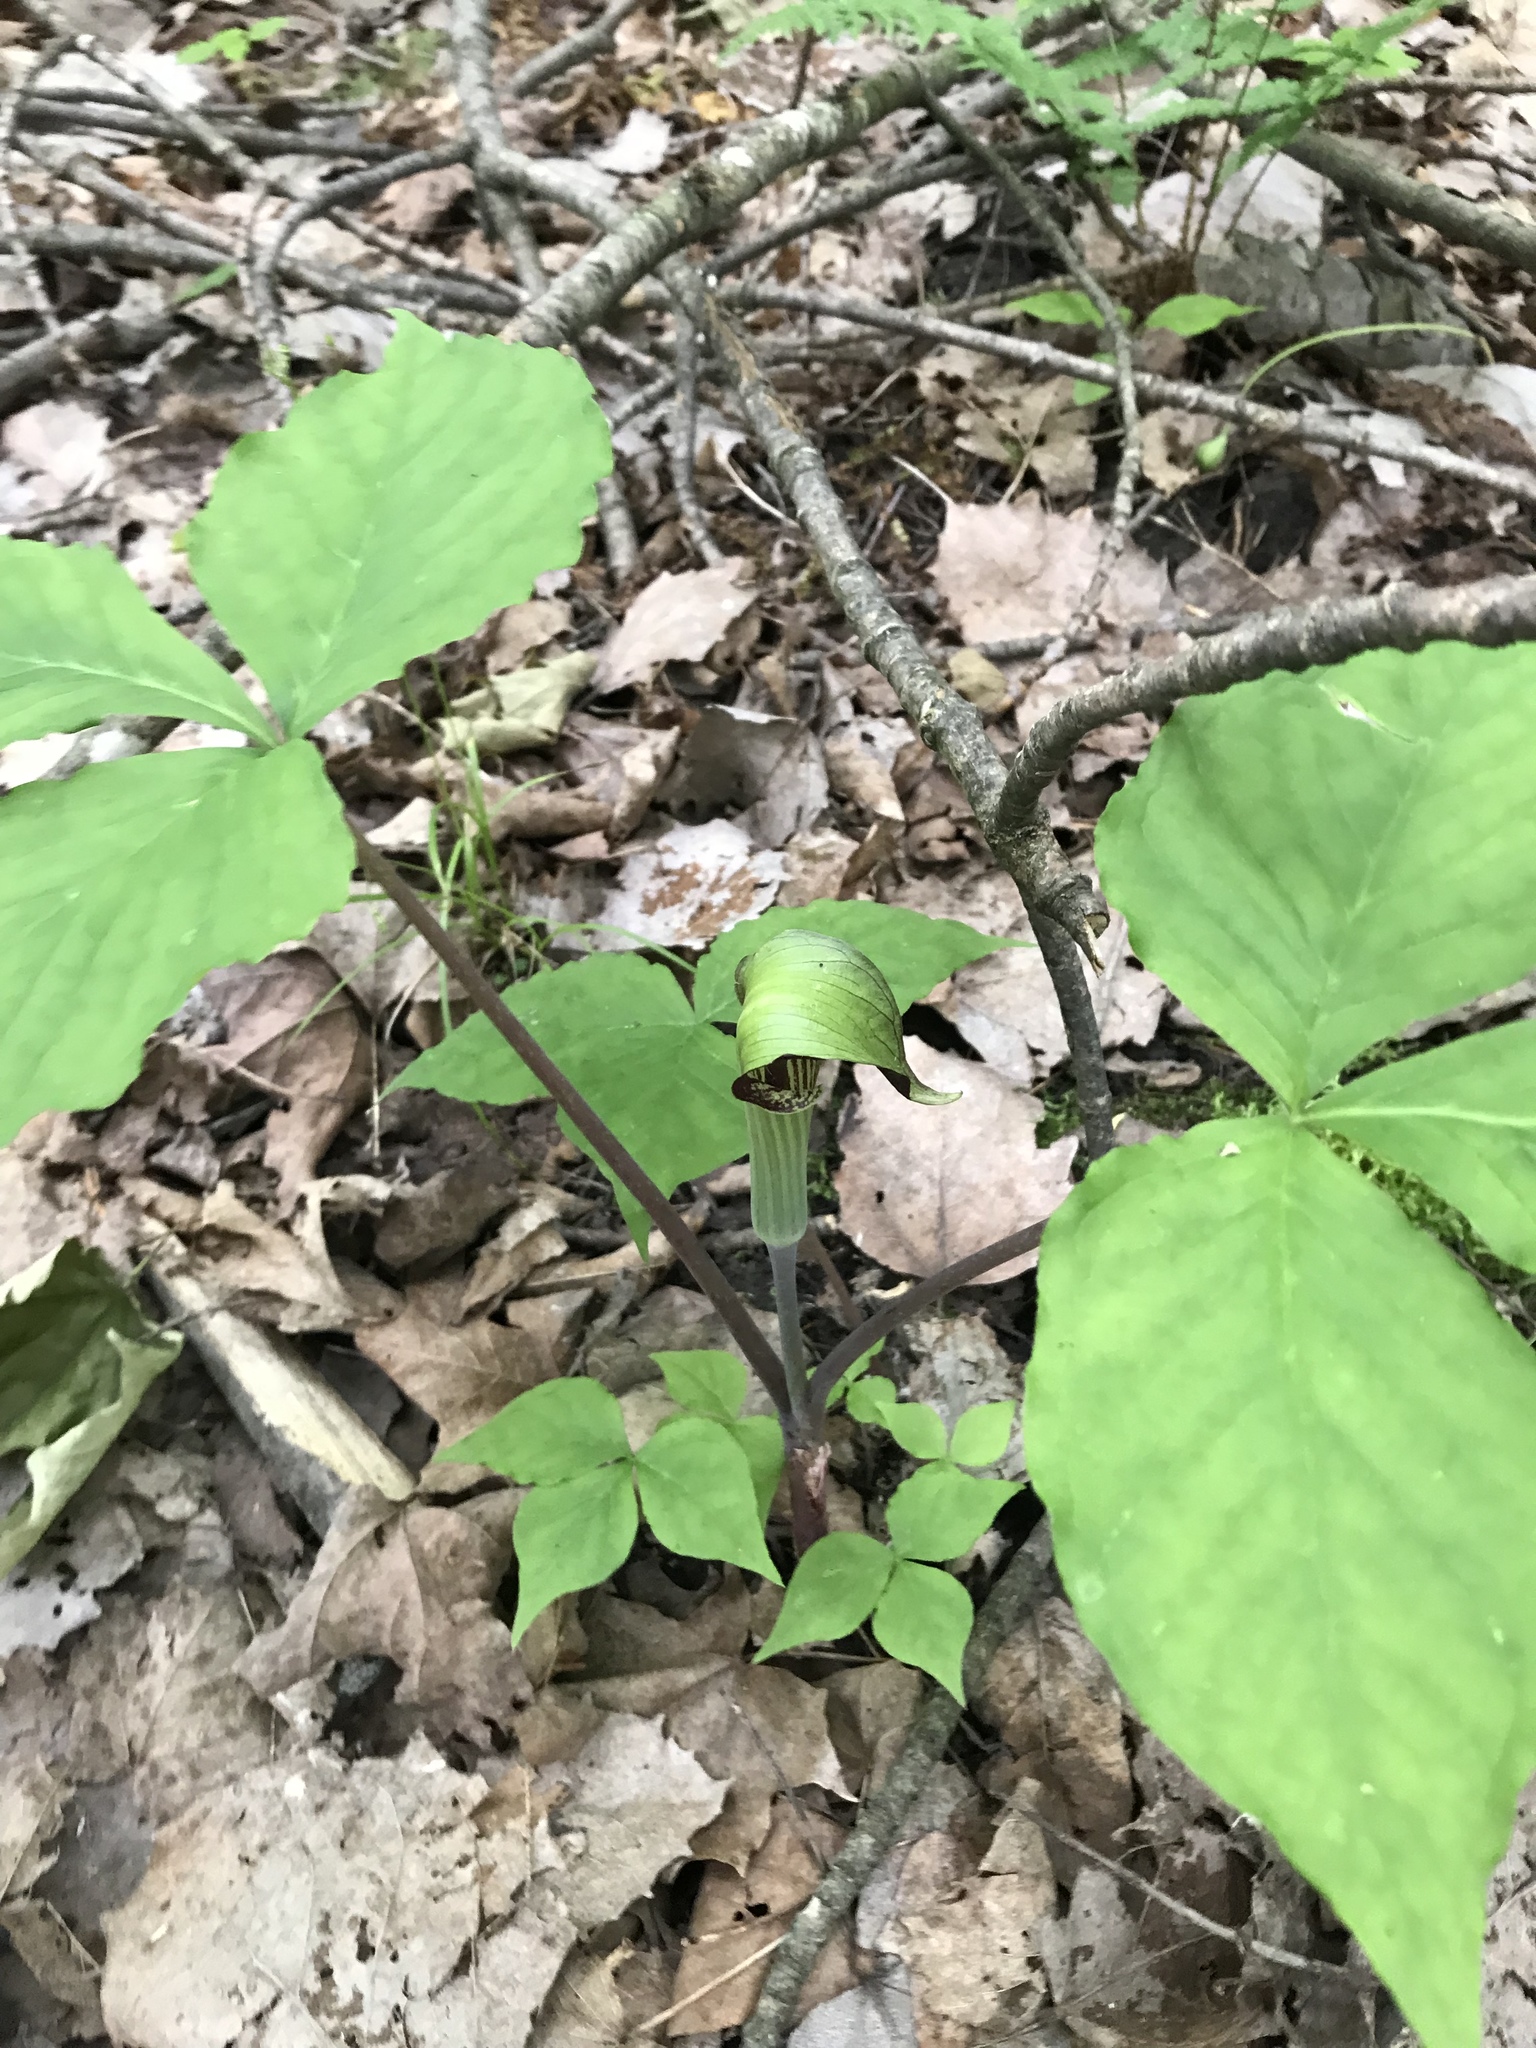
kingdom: Plantae
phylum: Tracheophyta
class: Liliopsida
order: Alismatales
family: Araceae
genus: Arisaema
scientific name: Arisaema triphyllum
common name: Jack-in-the-pulpit
